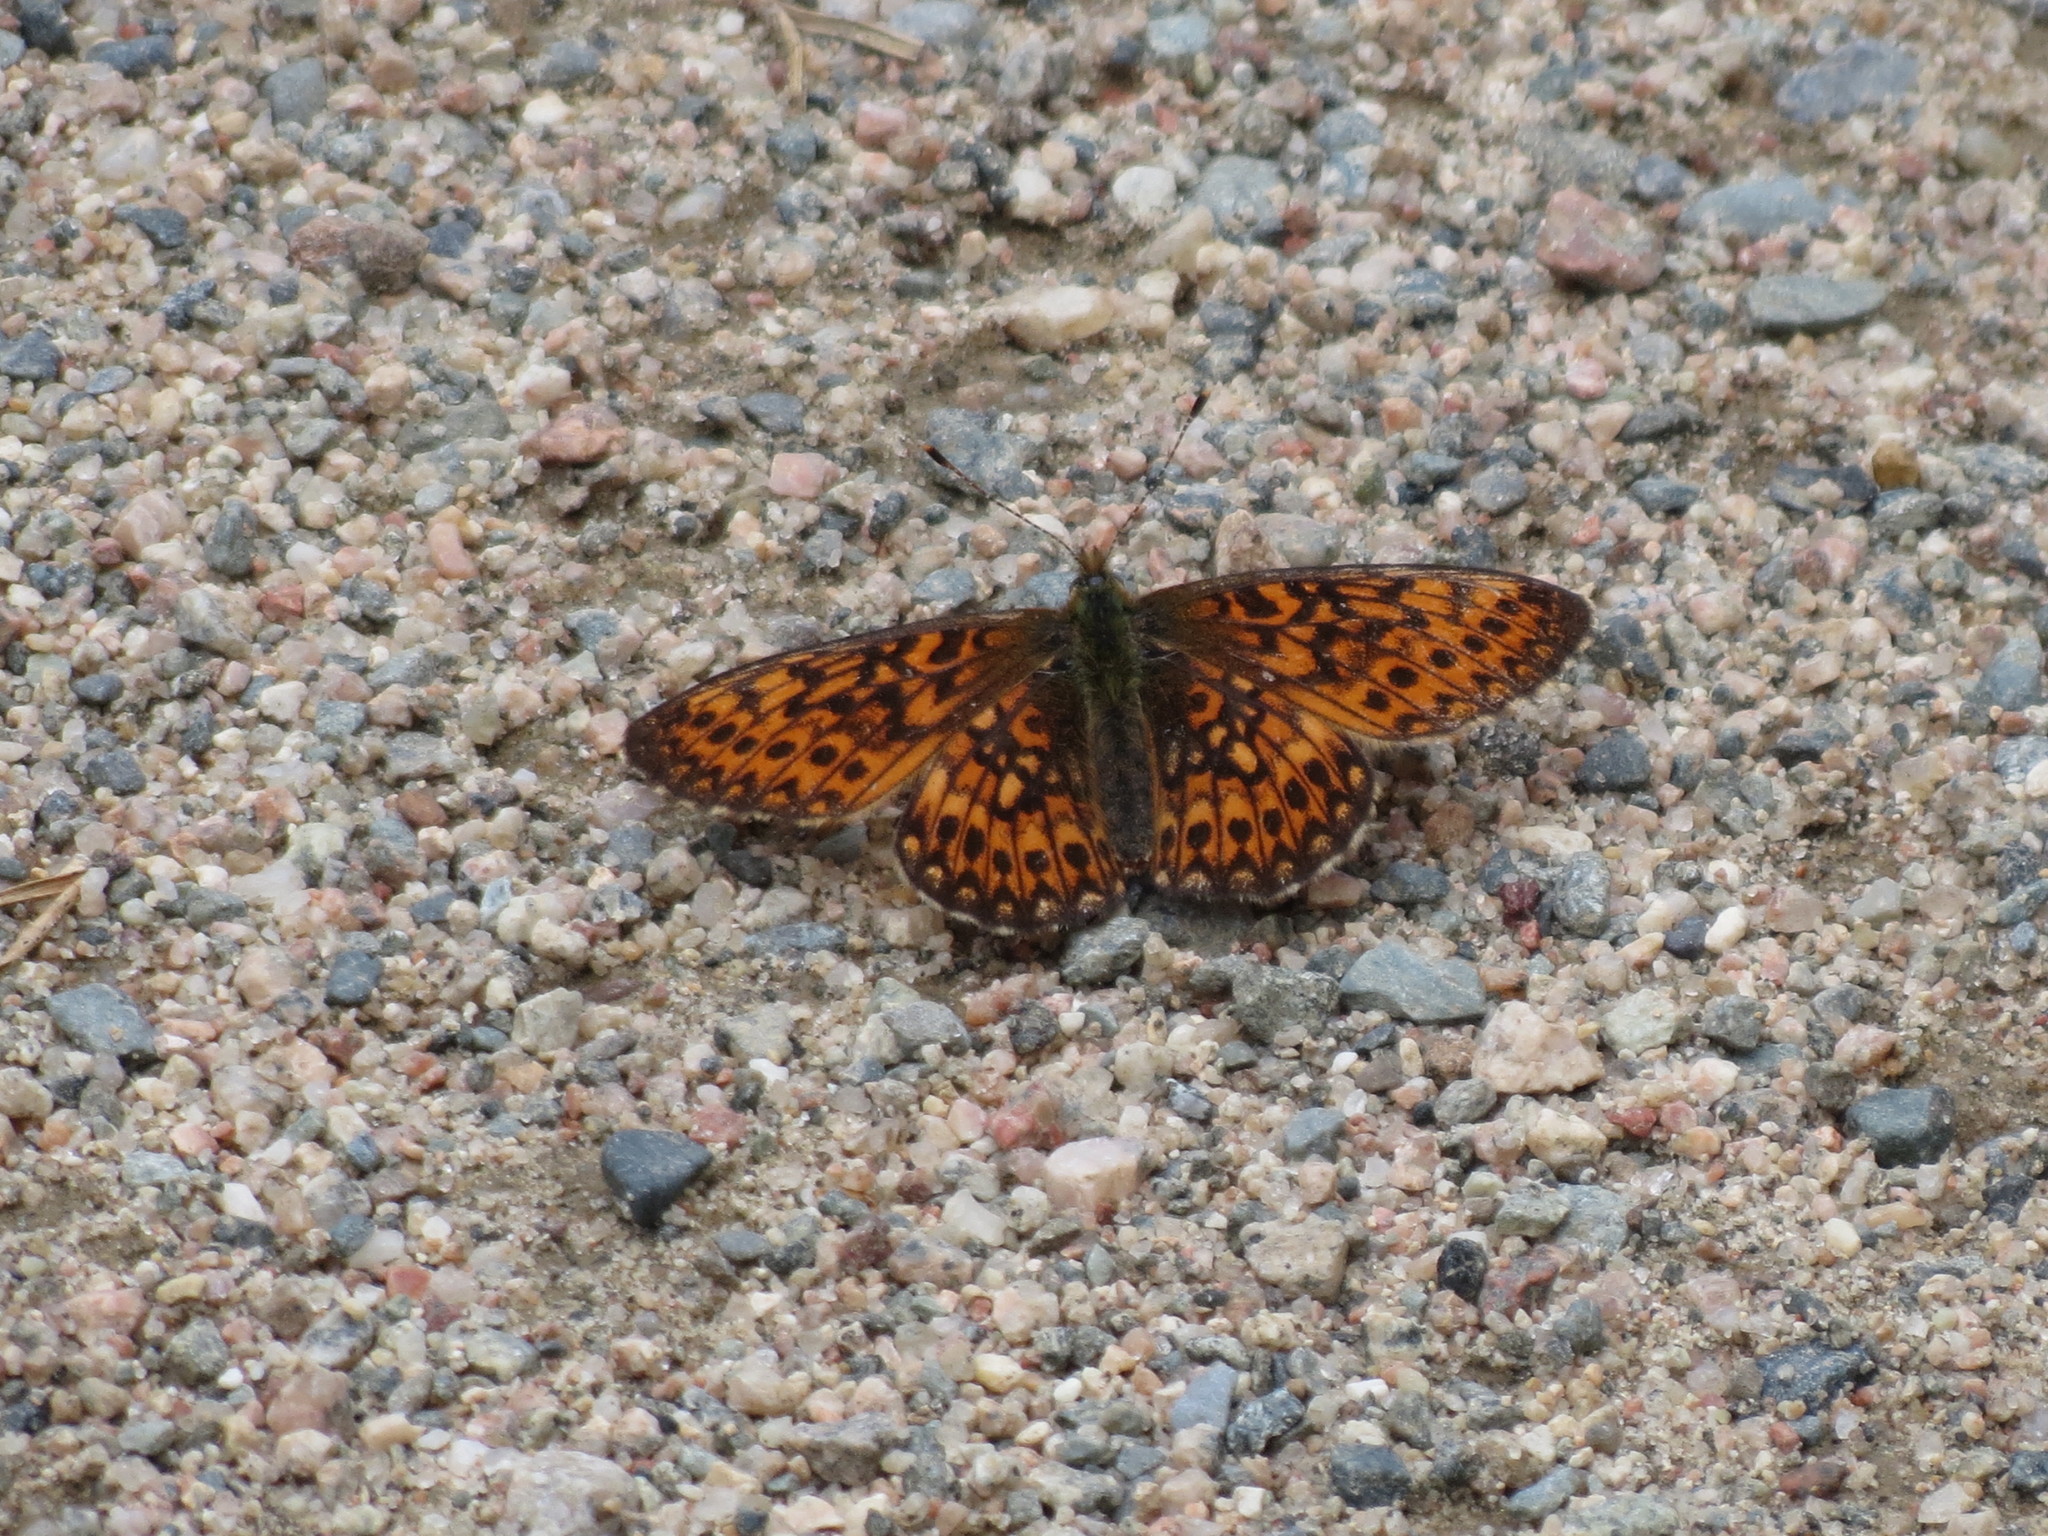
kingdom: Animalia
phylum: Arthropoda
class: Insecta
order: Lepidoptera
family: Nymphalidae
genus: Boloria
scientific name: Boloria eunomia
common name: Bog fritillary
